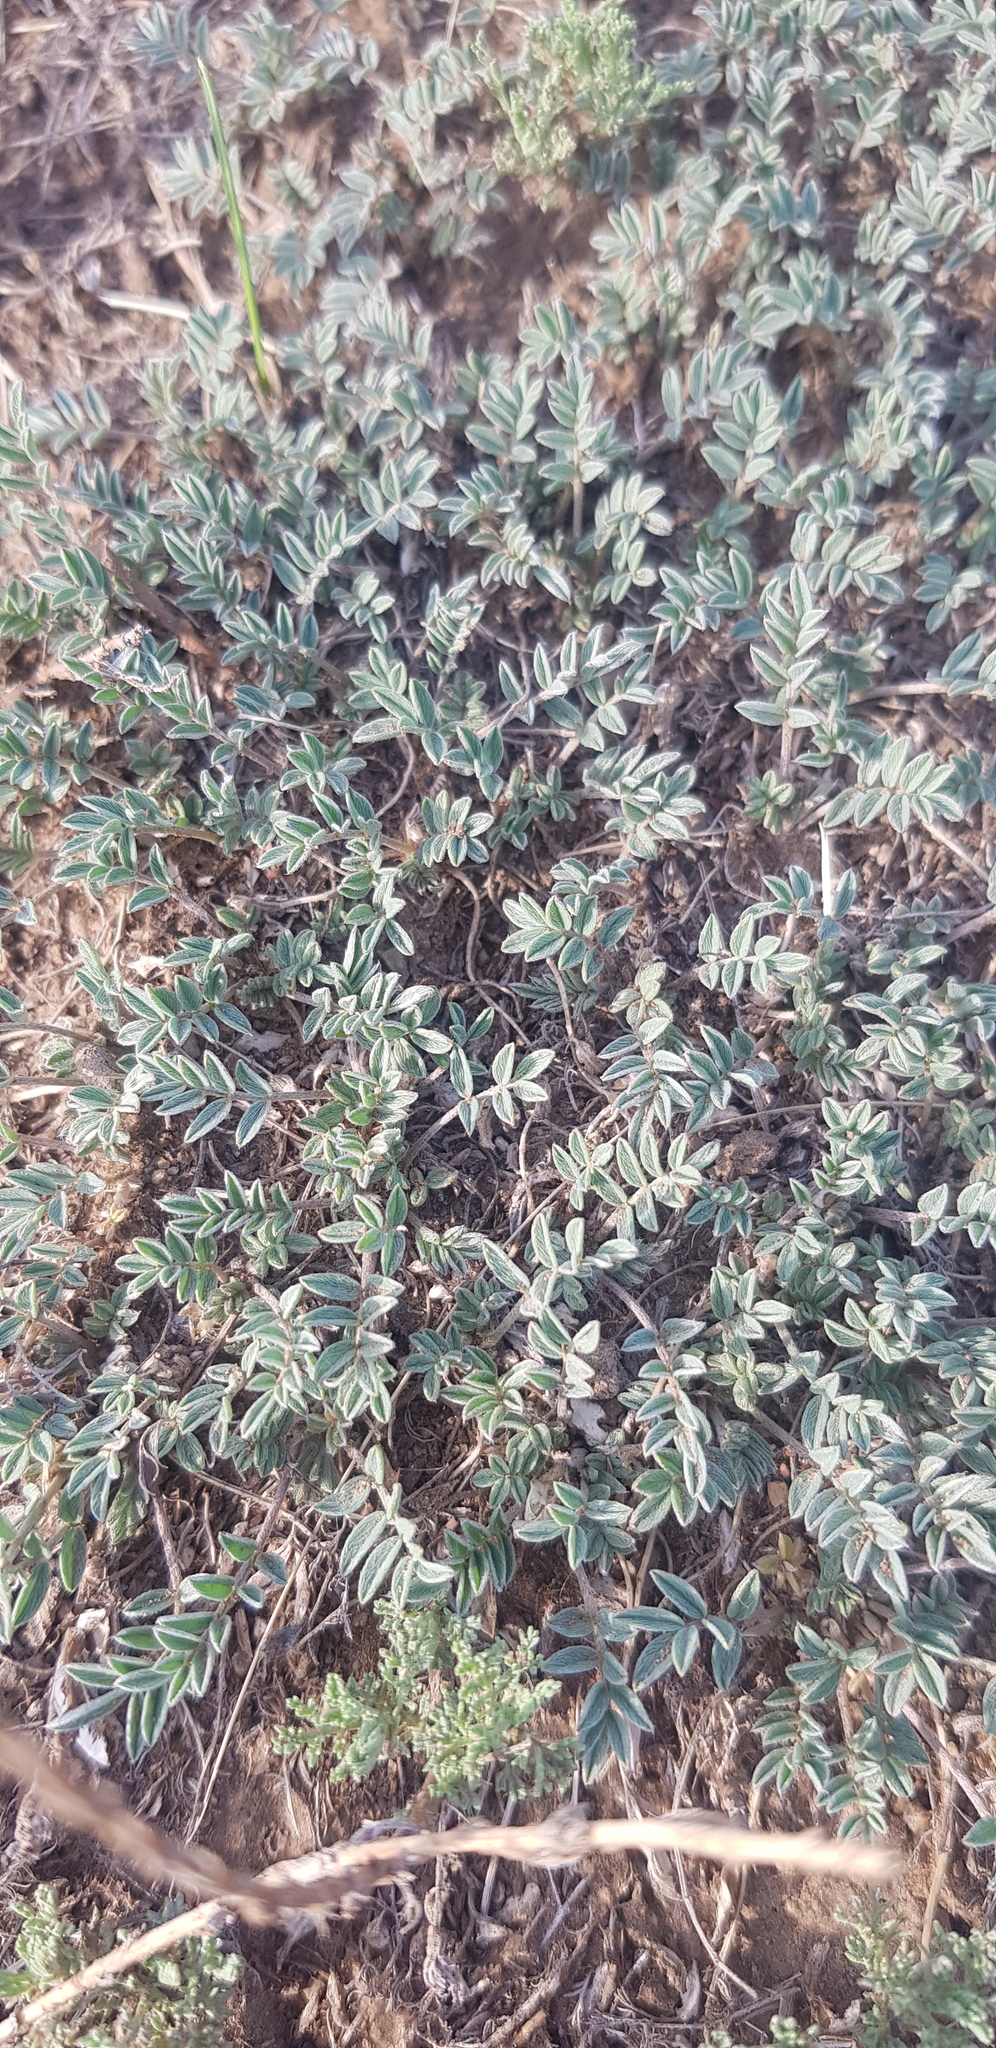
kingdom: Plantae
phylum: Tracheophyta
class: Magnoliopsida
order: Fabales
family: Fabaceae
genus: Astragalus
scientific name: Astragalus brevifolius
